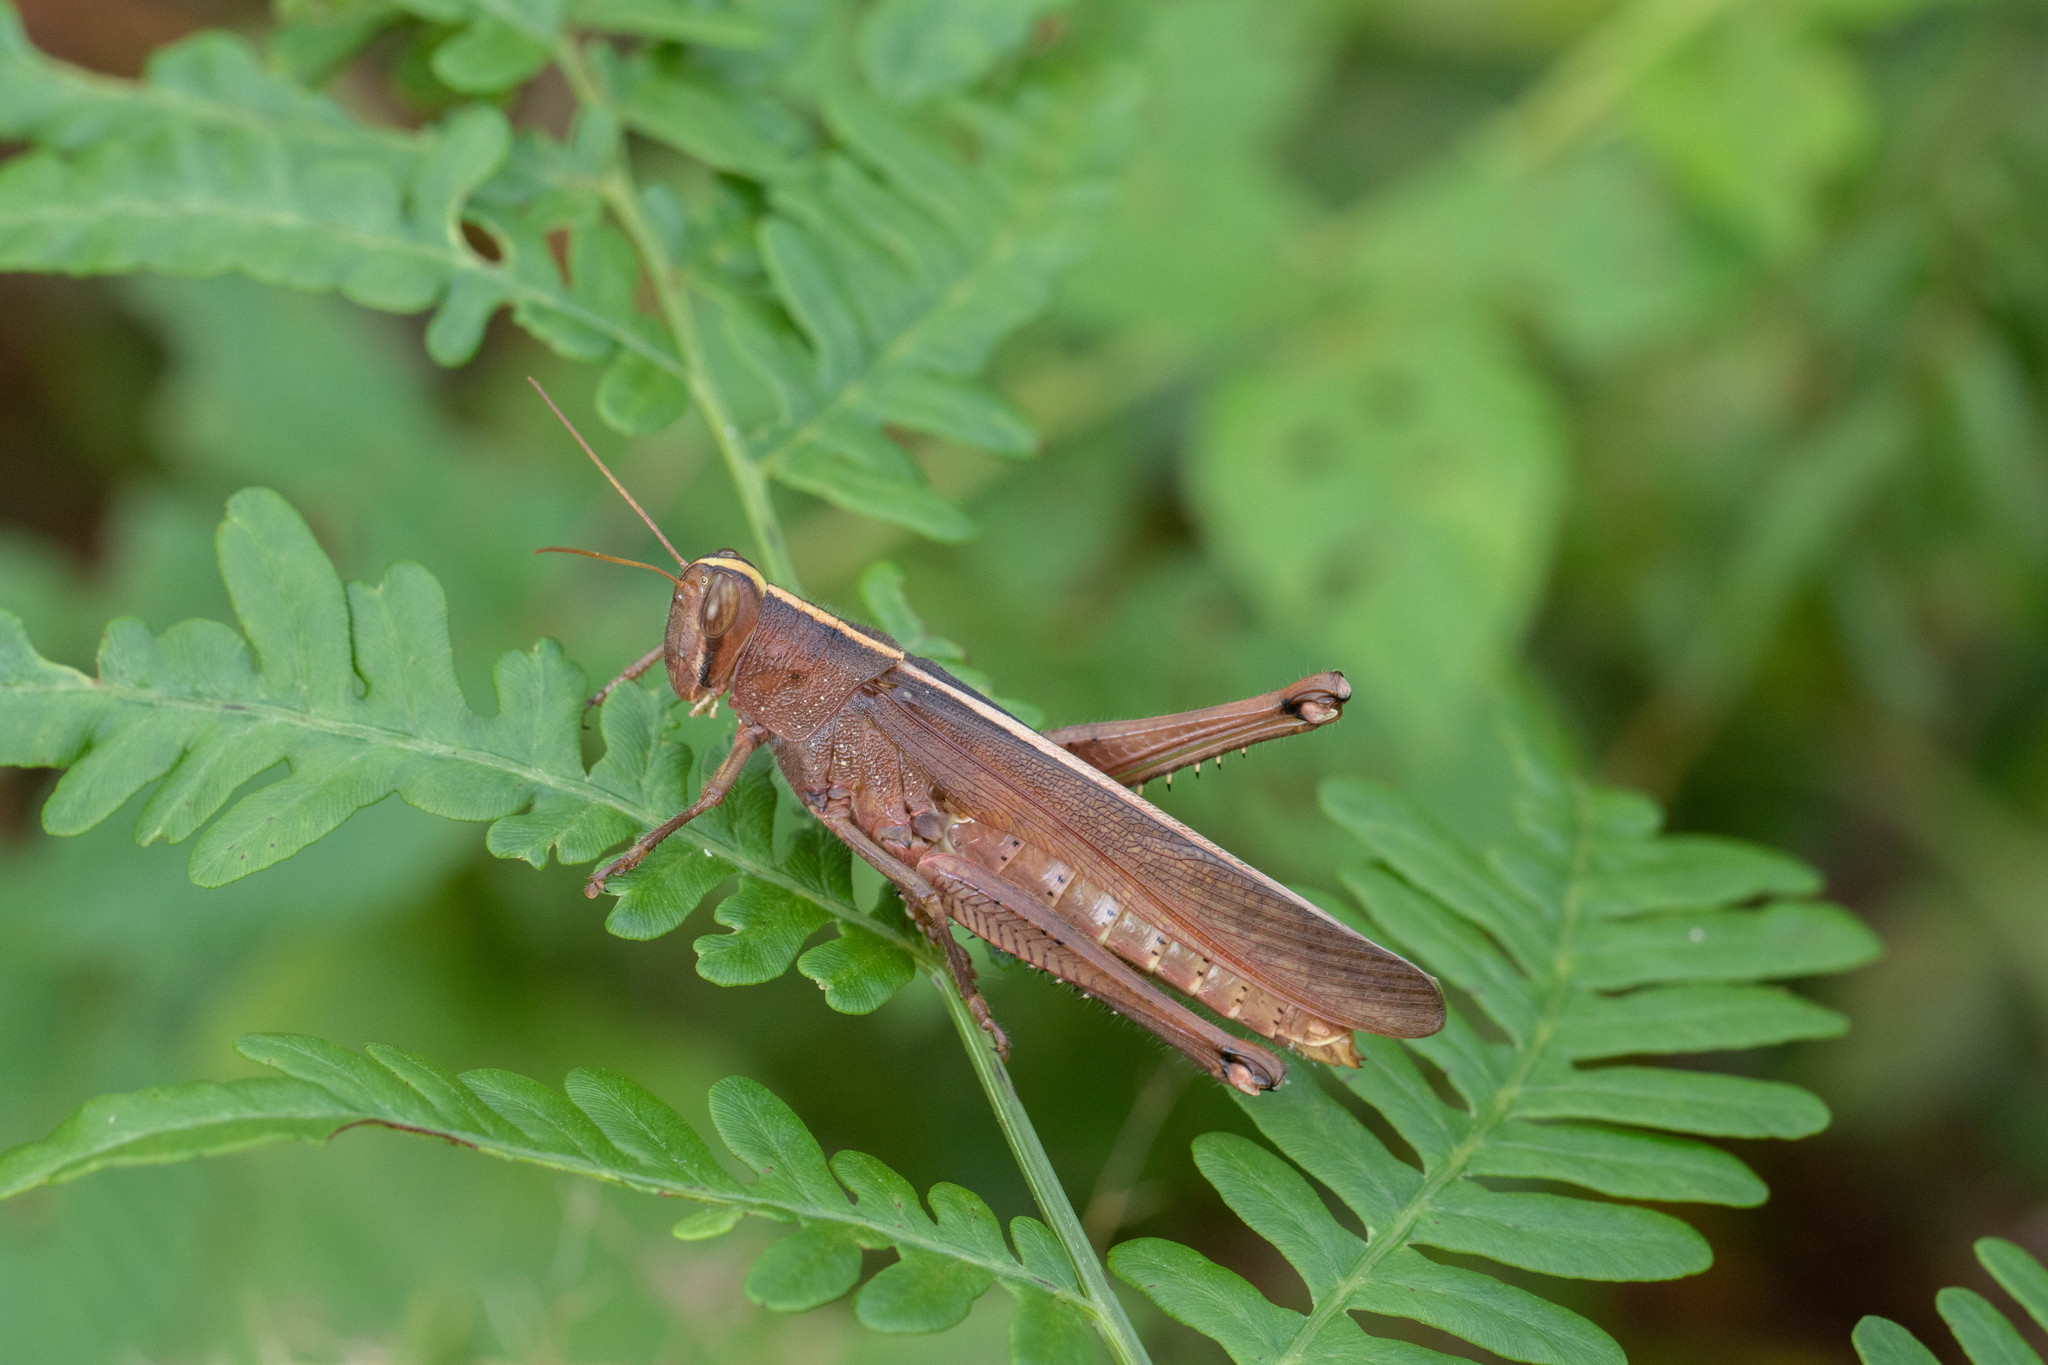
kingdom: Animalia
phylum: Arthropoda
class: Insecta
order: Orthoptera
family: Acrididae
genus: Schistocerca
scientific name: Schistocerca alutacea
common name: Leather-colored bird locust
